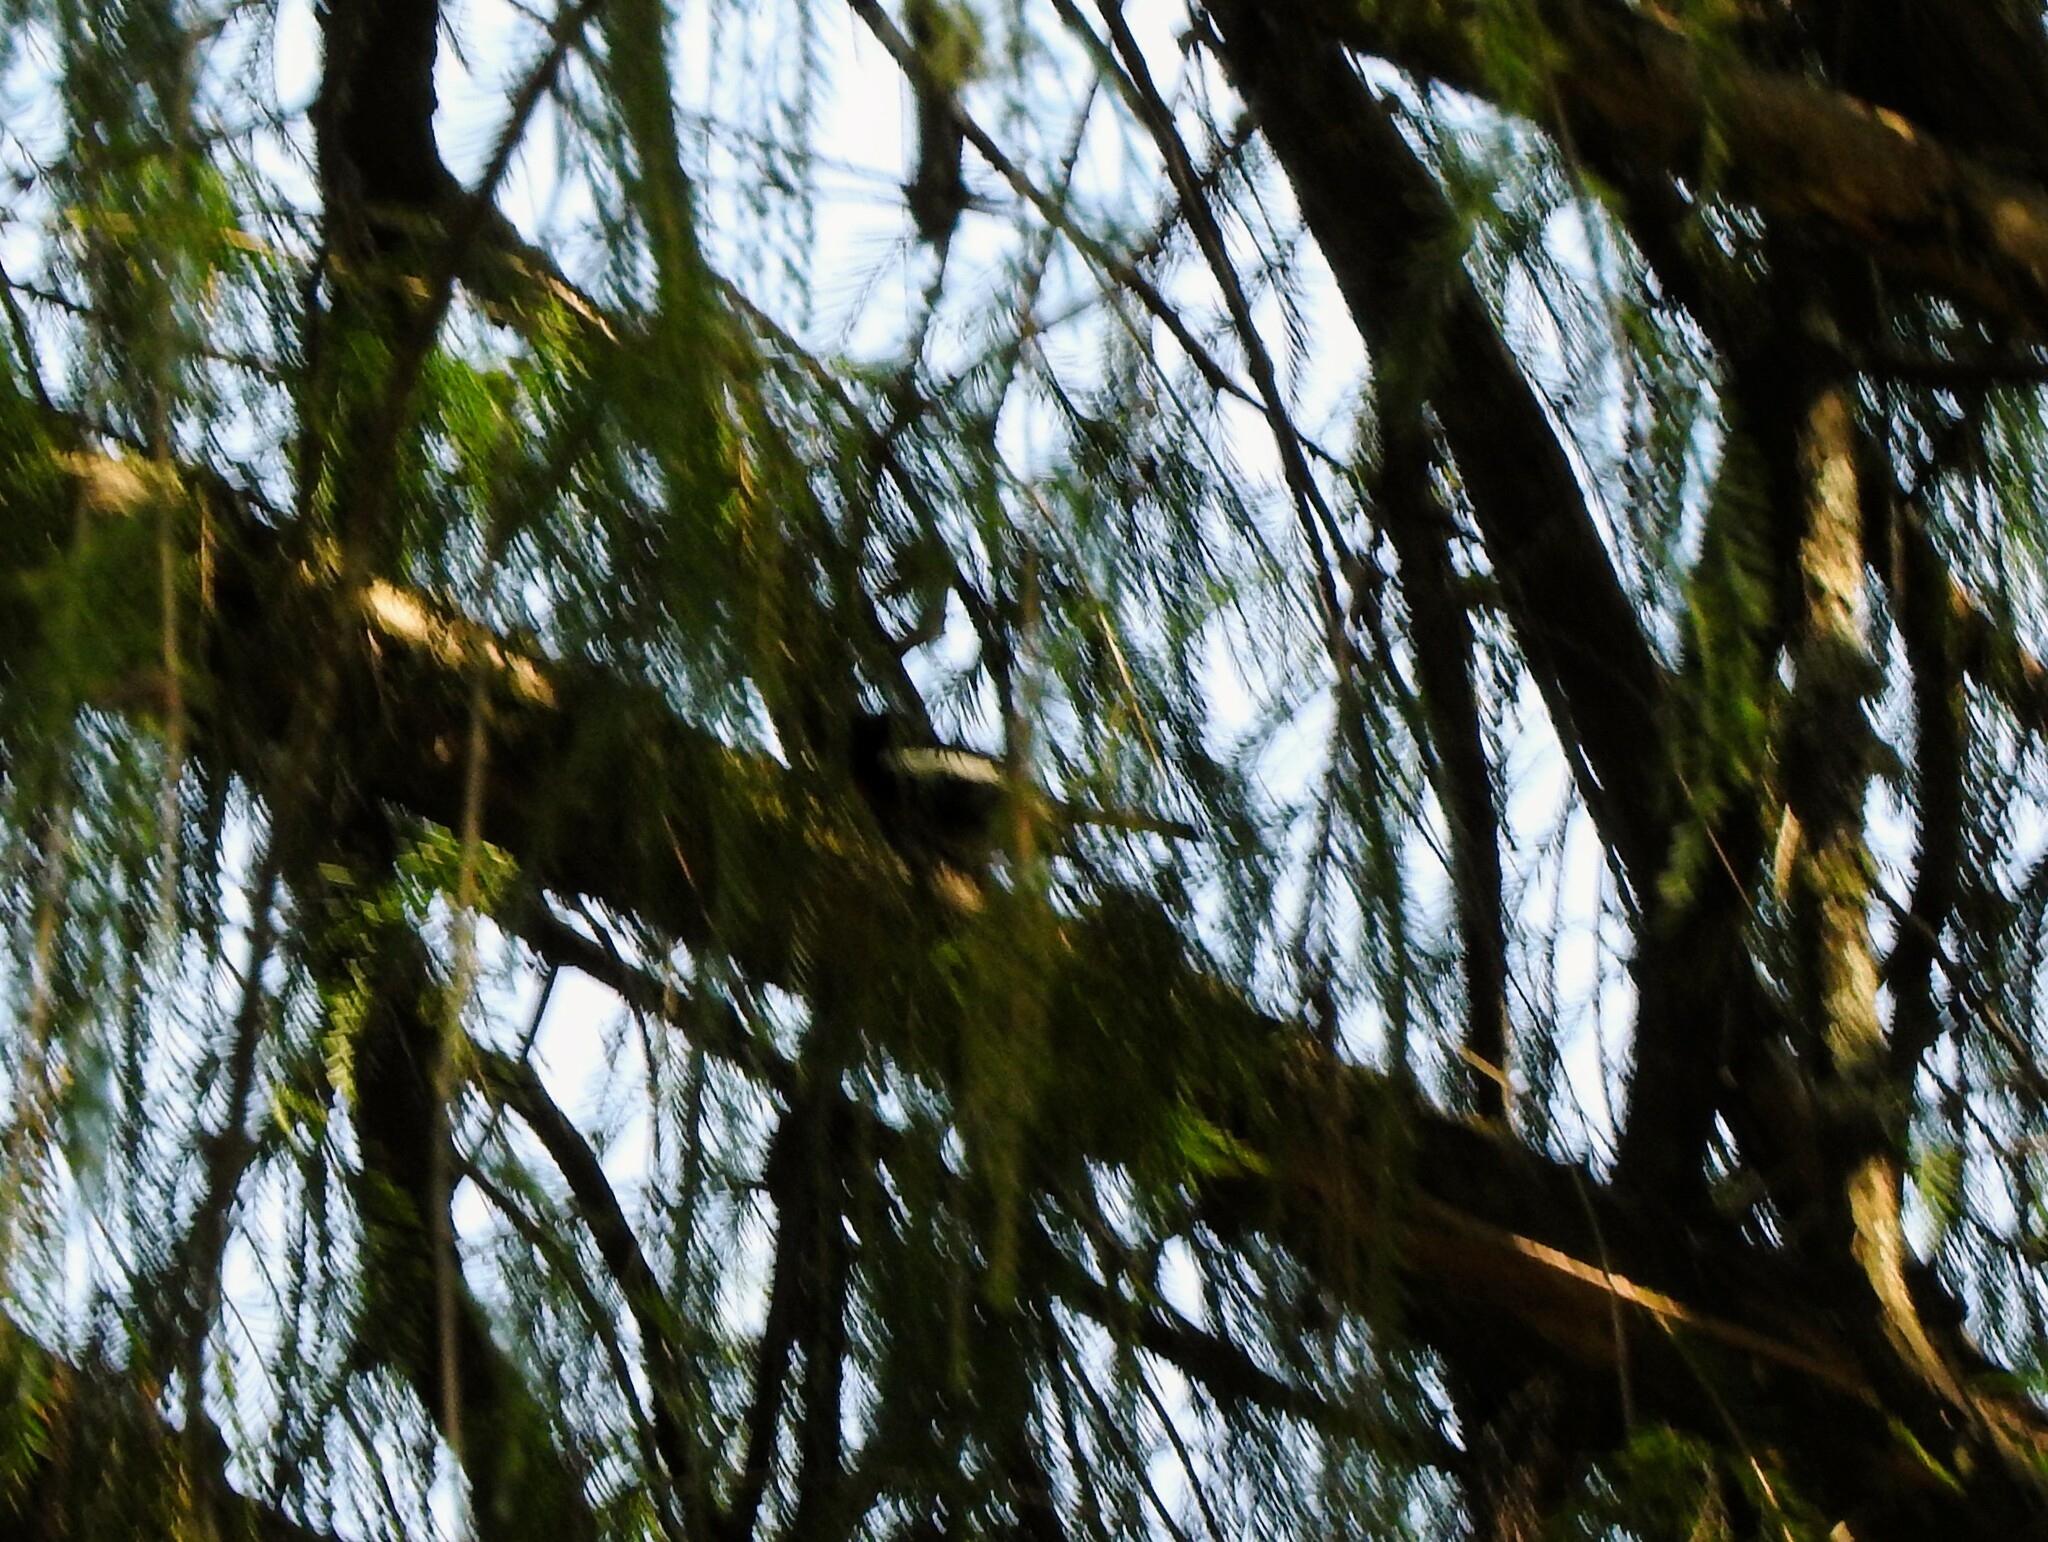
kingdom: Animalia
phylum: Chordata
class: Aves
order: Passeriformes
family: Parulidae
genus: Myioborus
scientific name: Myioborus pictus
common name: Painted whitestart
